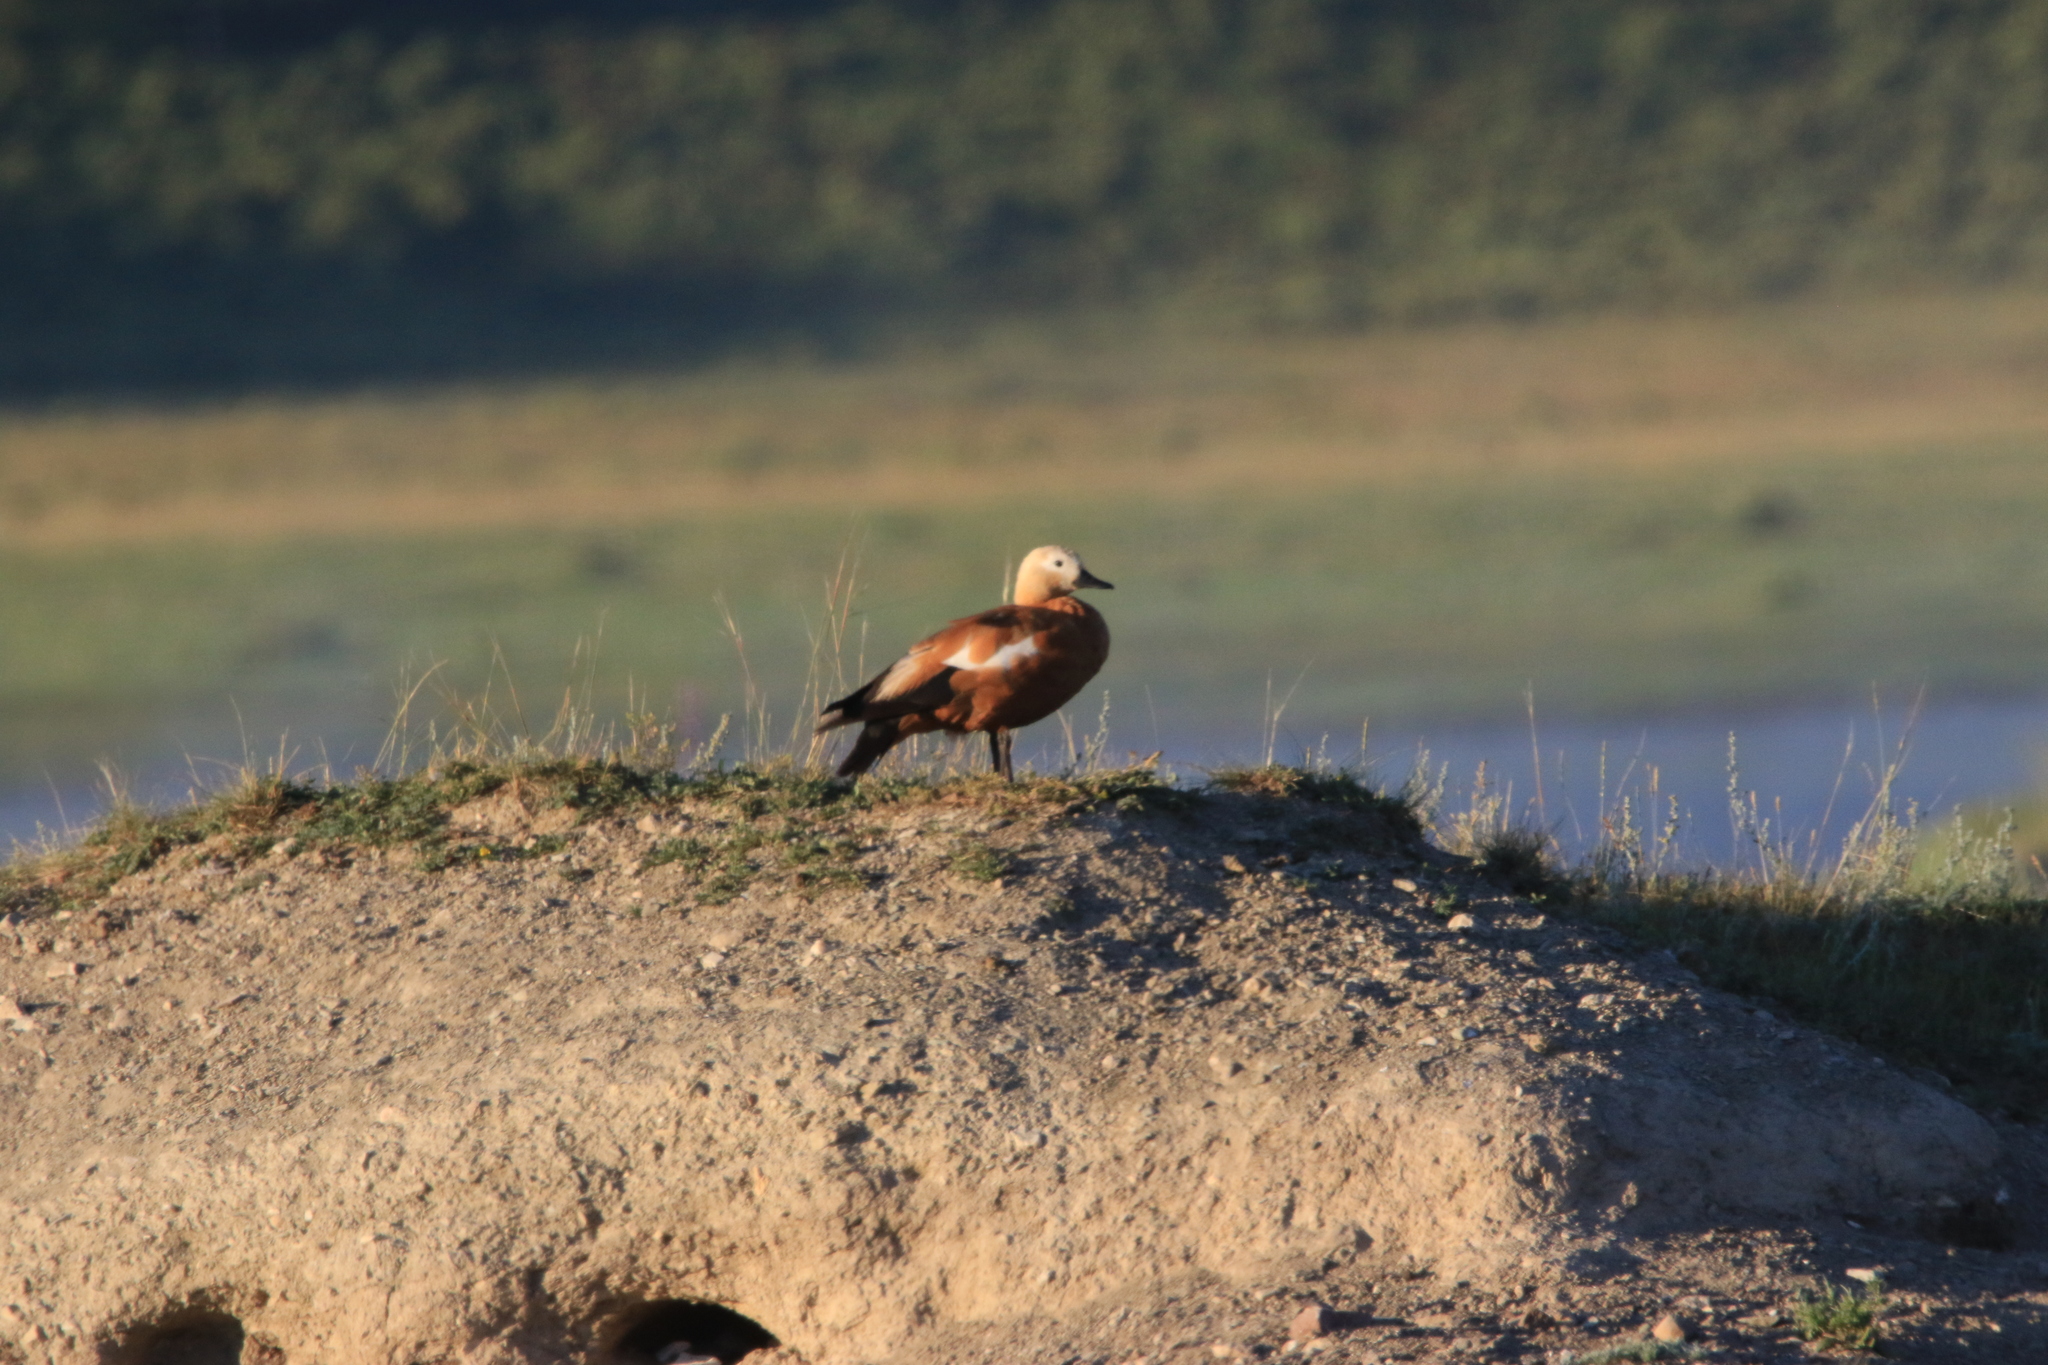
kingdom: Animalia
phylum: Chordata
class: Aves
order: Anseriformes
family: Anatidae
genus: Tadorna
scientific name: Tadorna ferruginea
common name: Ruddy shelduck
